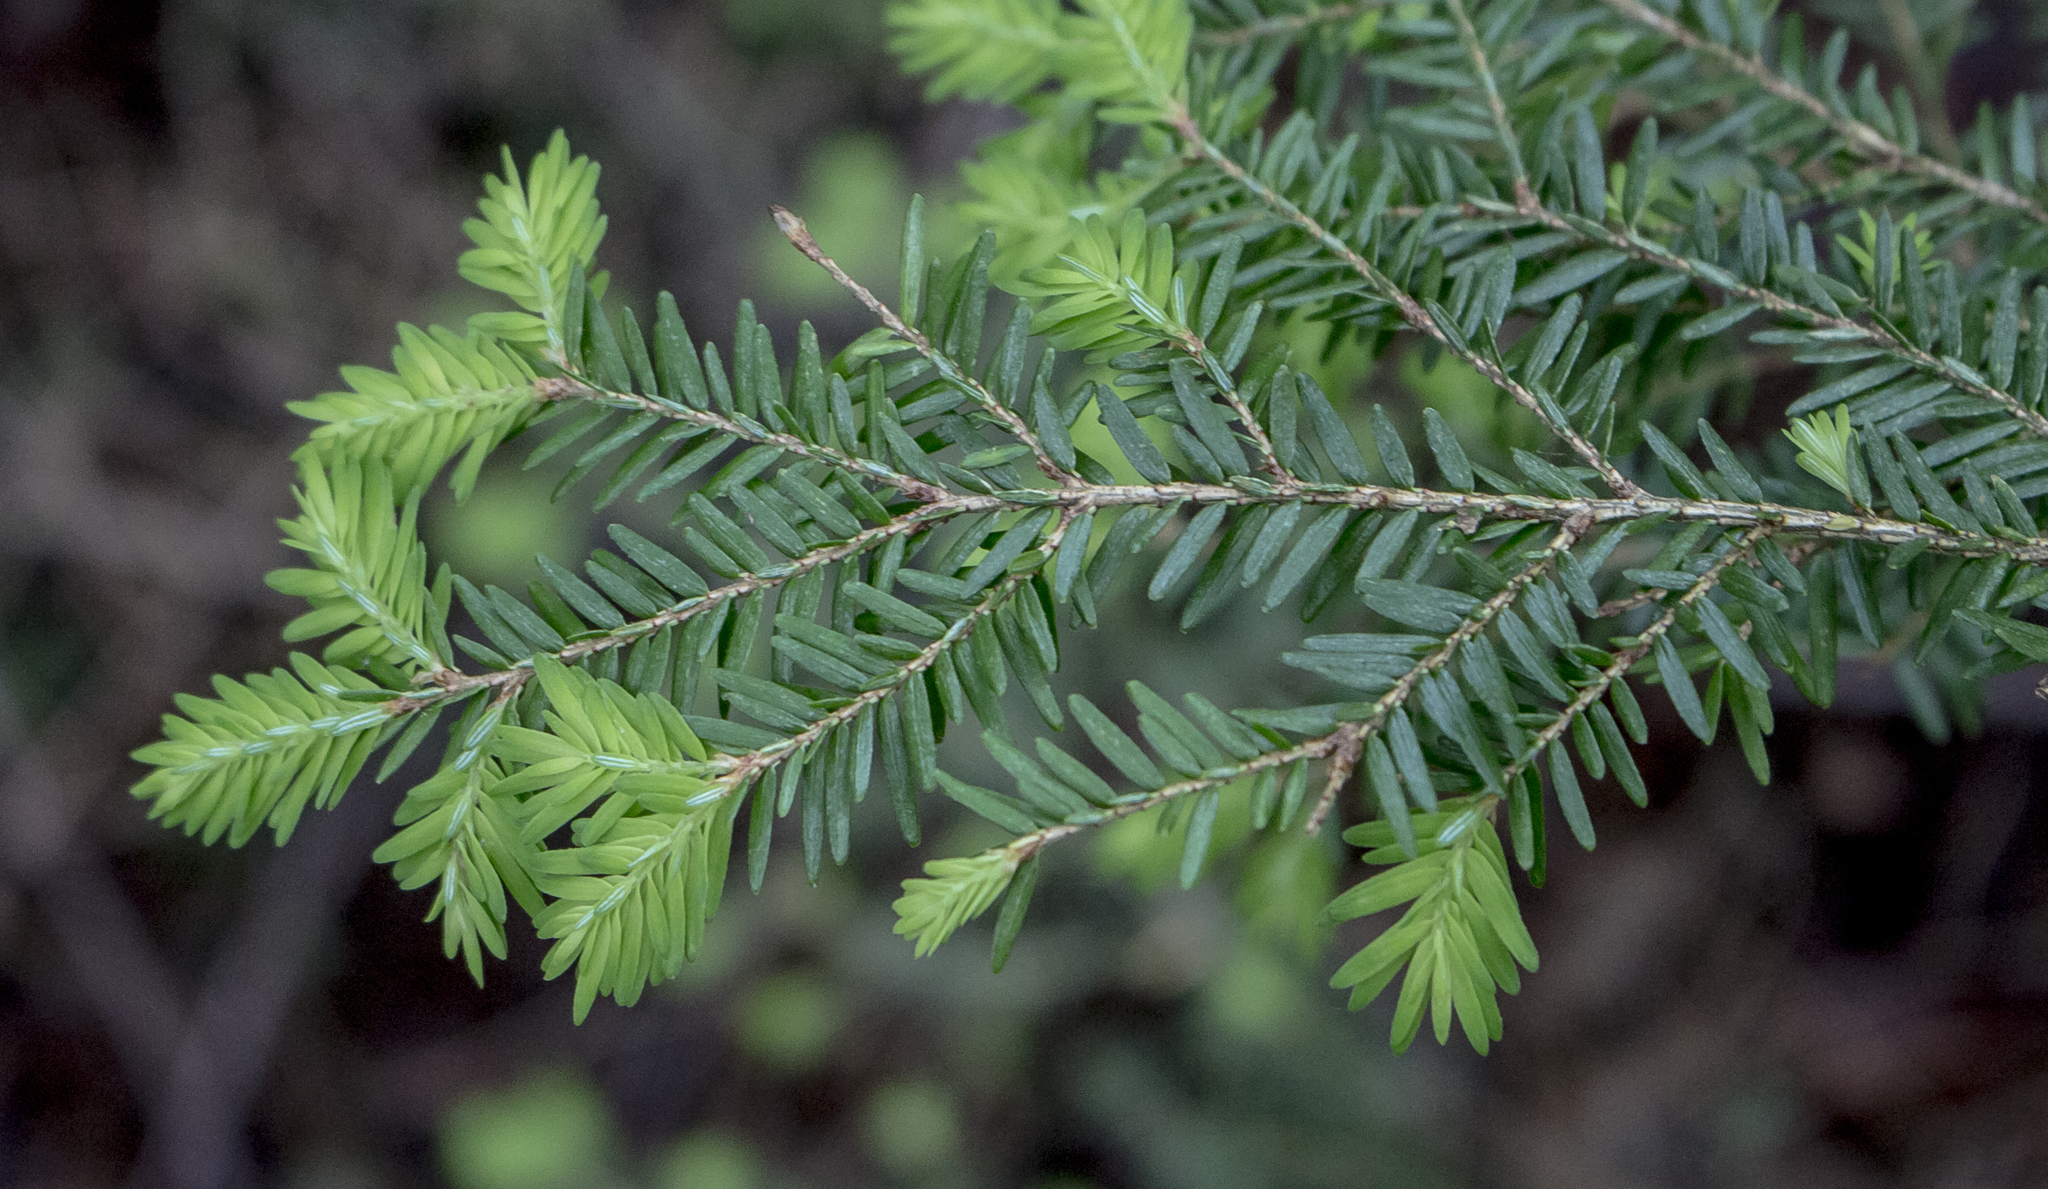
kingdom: Plantae
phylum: Tracheophyta
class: Pinopsida
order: Pinales
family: Pinaceae
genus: Tsuga
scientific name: Tsuga canadensis
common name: Eastern hemlock
